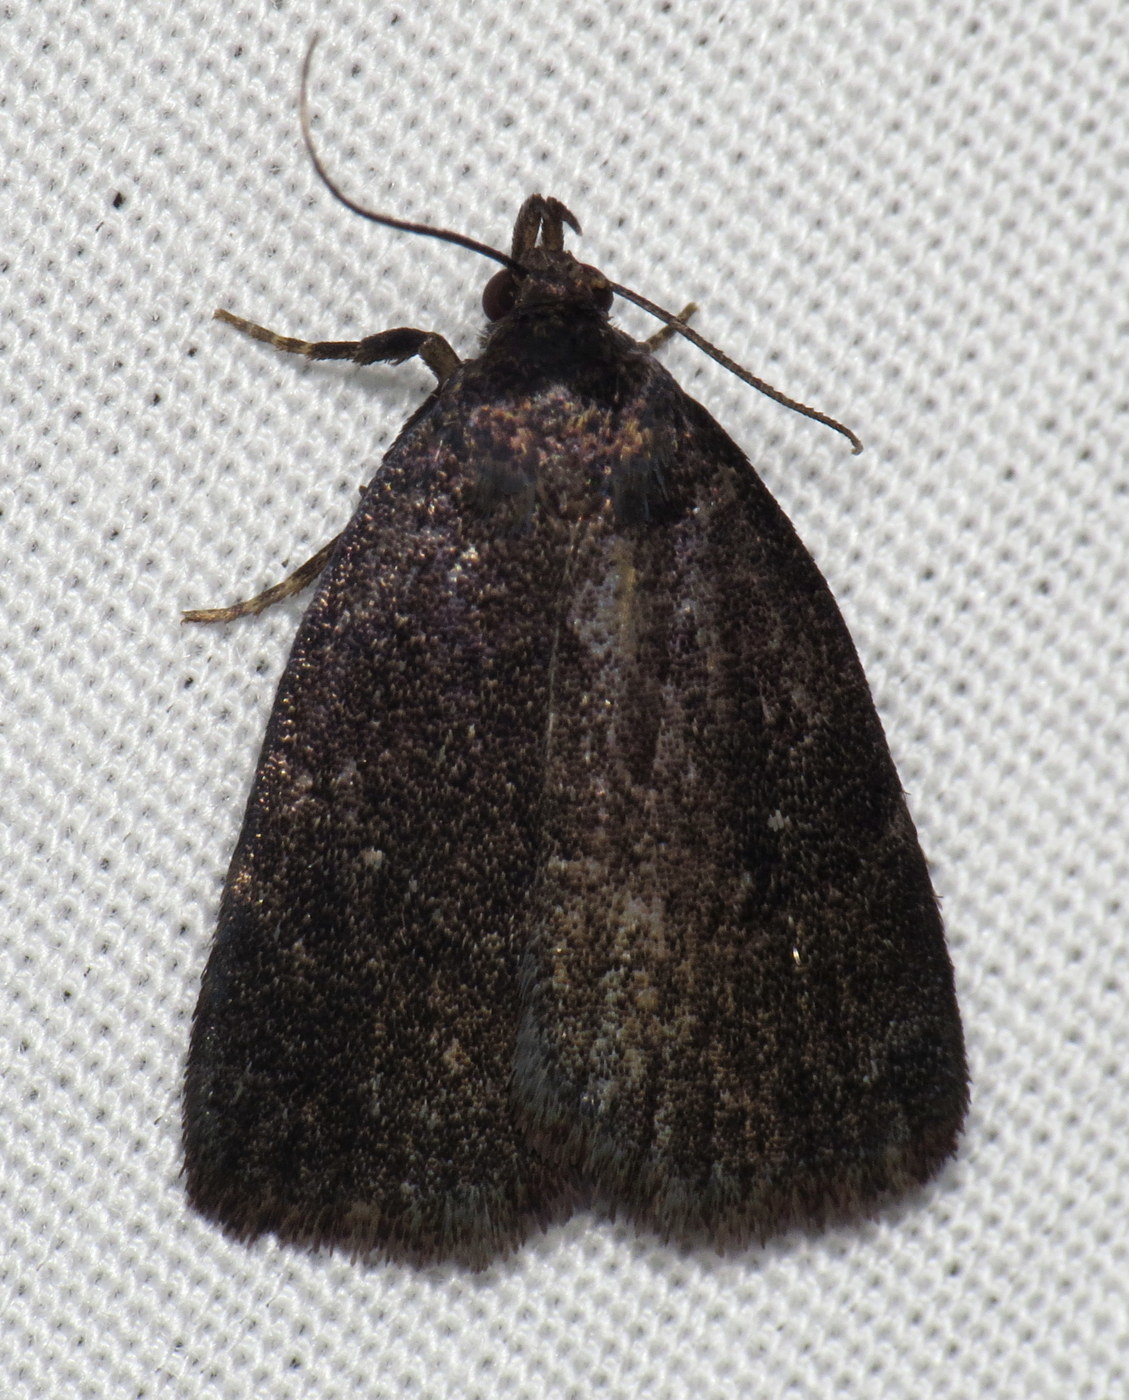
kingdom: Animalia
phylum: Arthropoda
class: Insecta
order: Lepidoptera
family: Erebidae
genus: Idia
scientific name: Idia rotundalis
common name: Rotund idia moth
